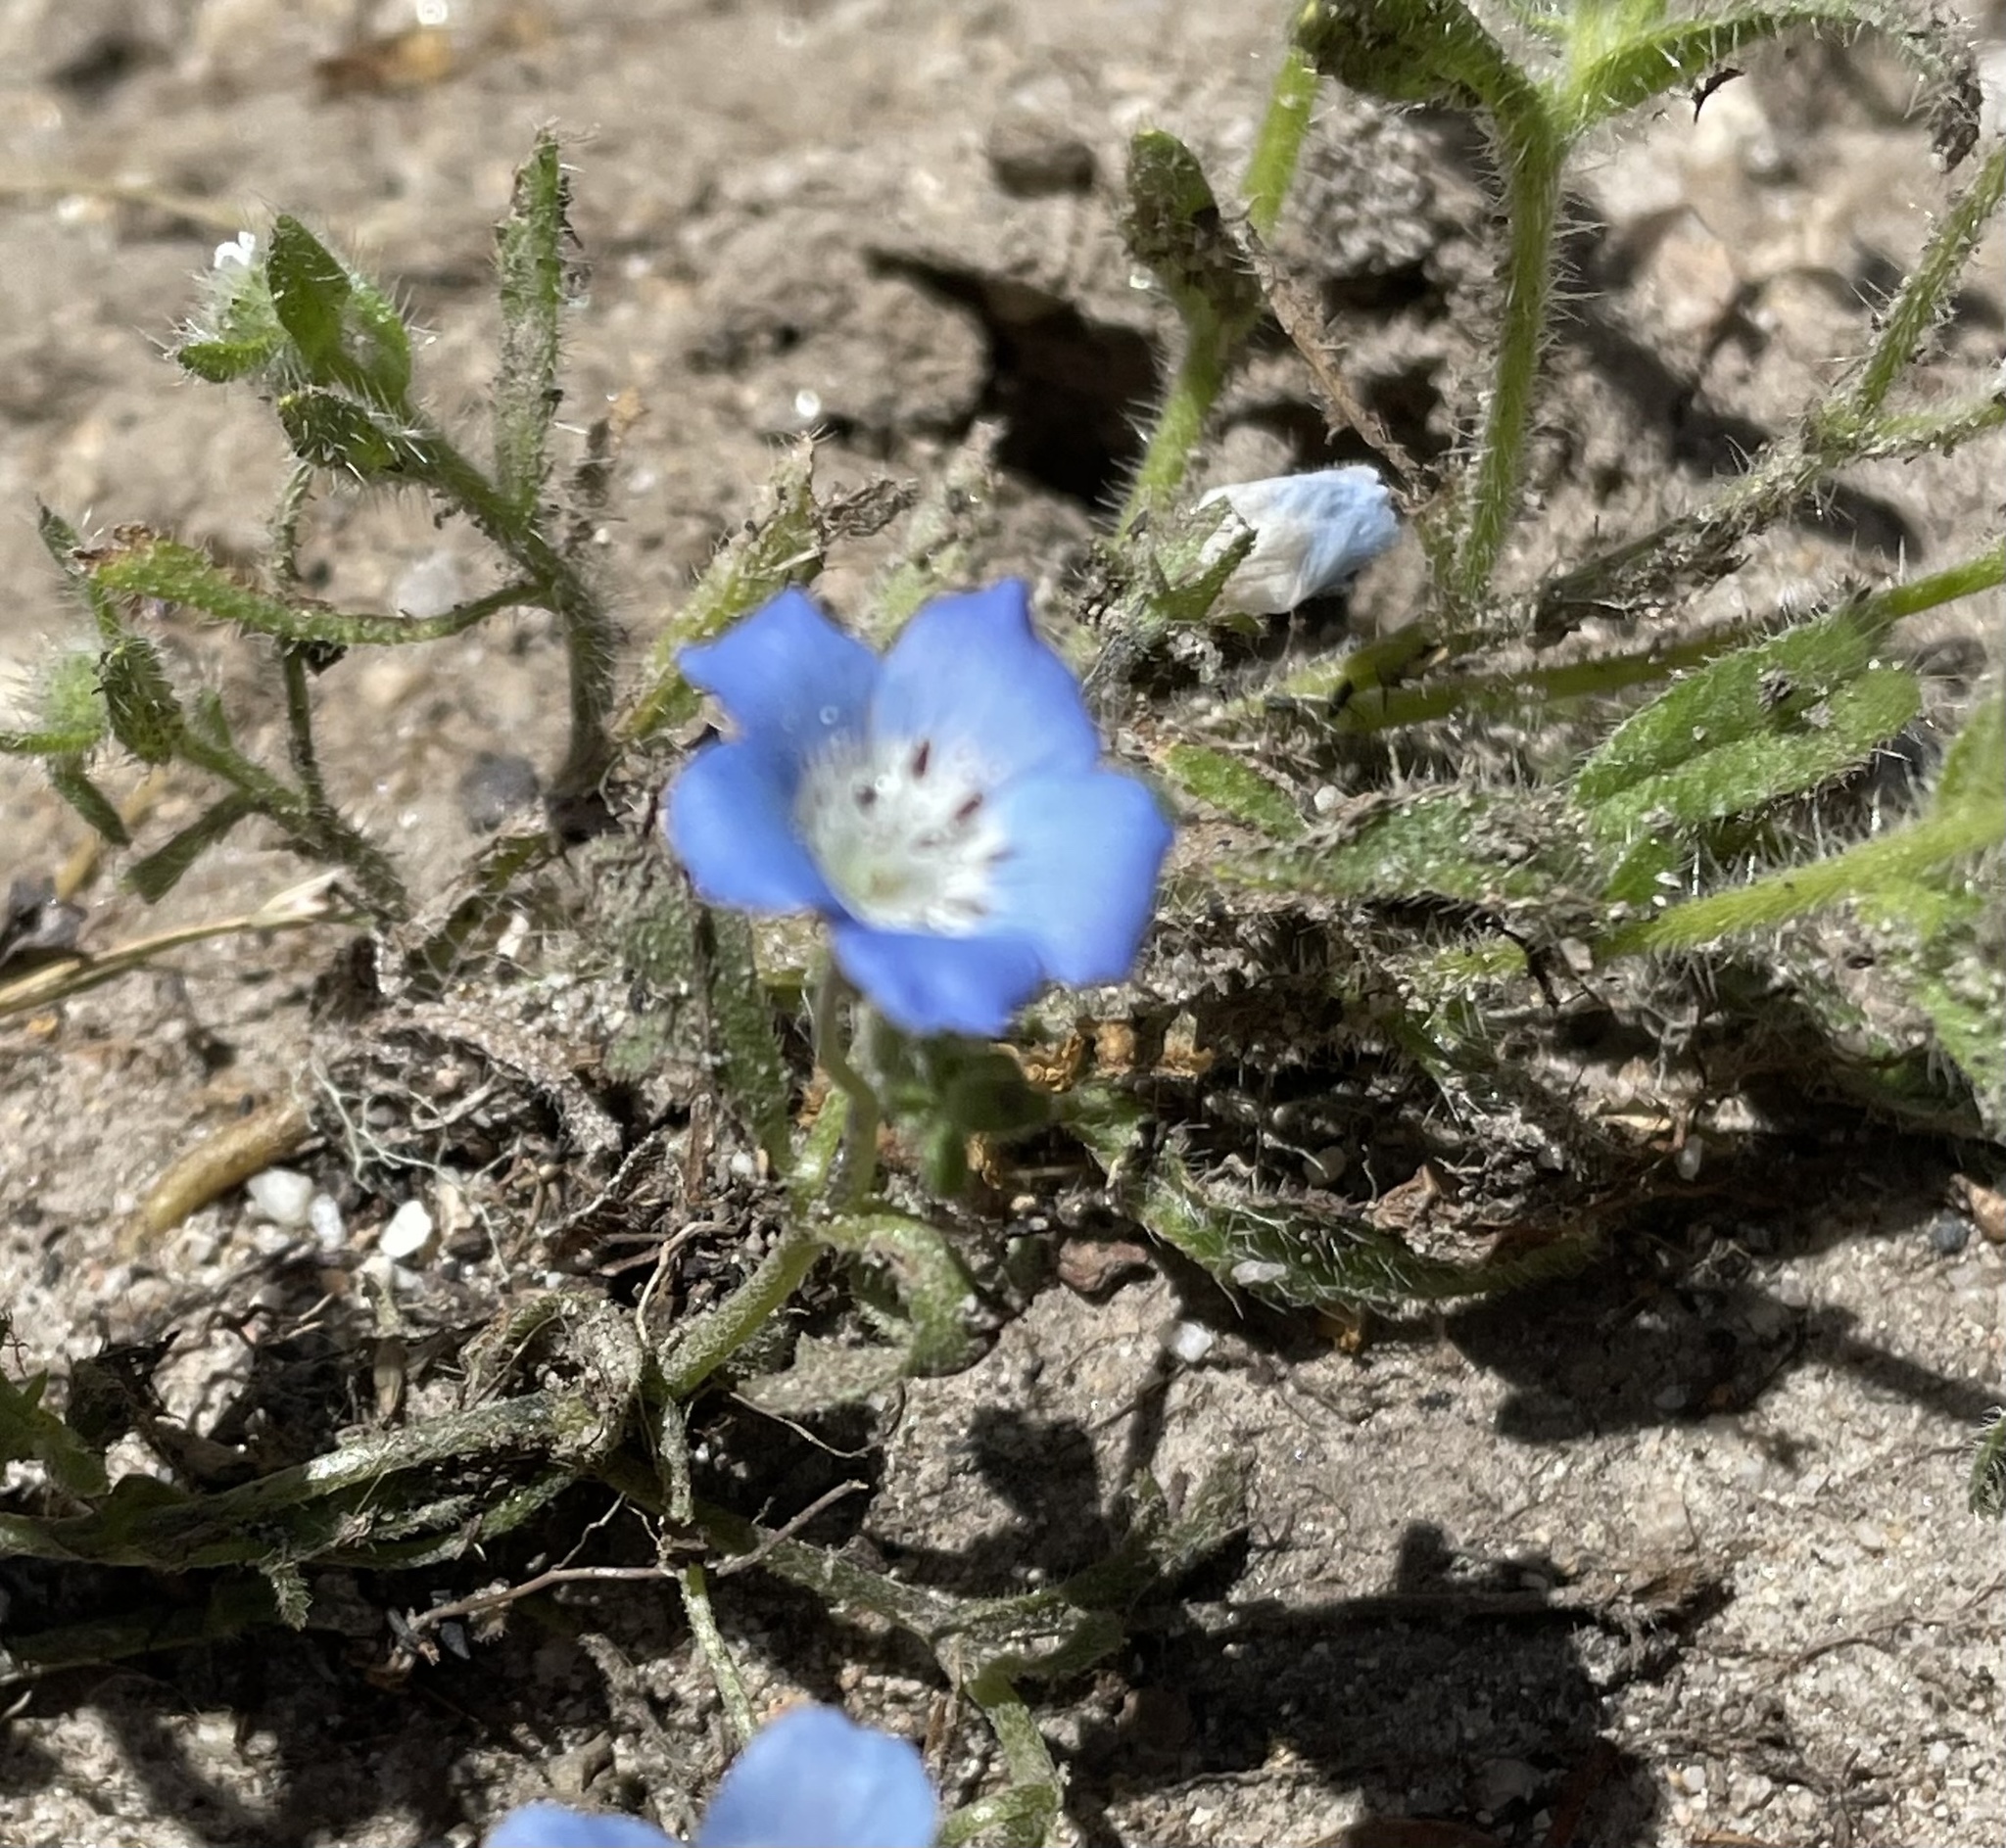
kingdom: Plantae
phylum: Tracheophyta
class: Magnoliopsida
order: Boraginales
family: Hydrophyllaceae
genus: Nemophila
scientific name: Nemophila menziesii
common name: Baby's-blue-eyes
